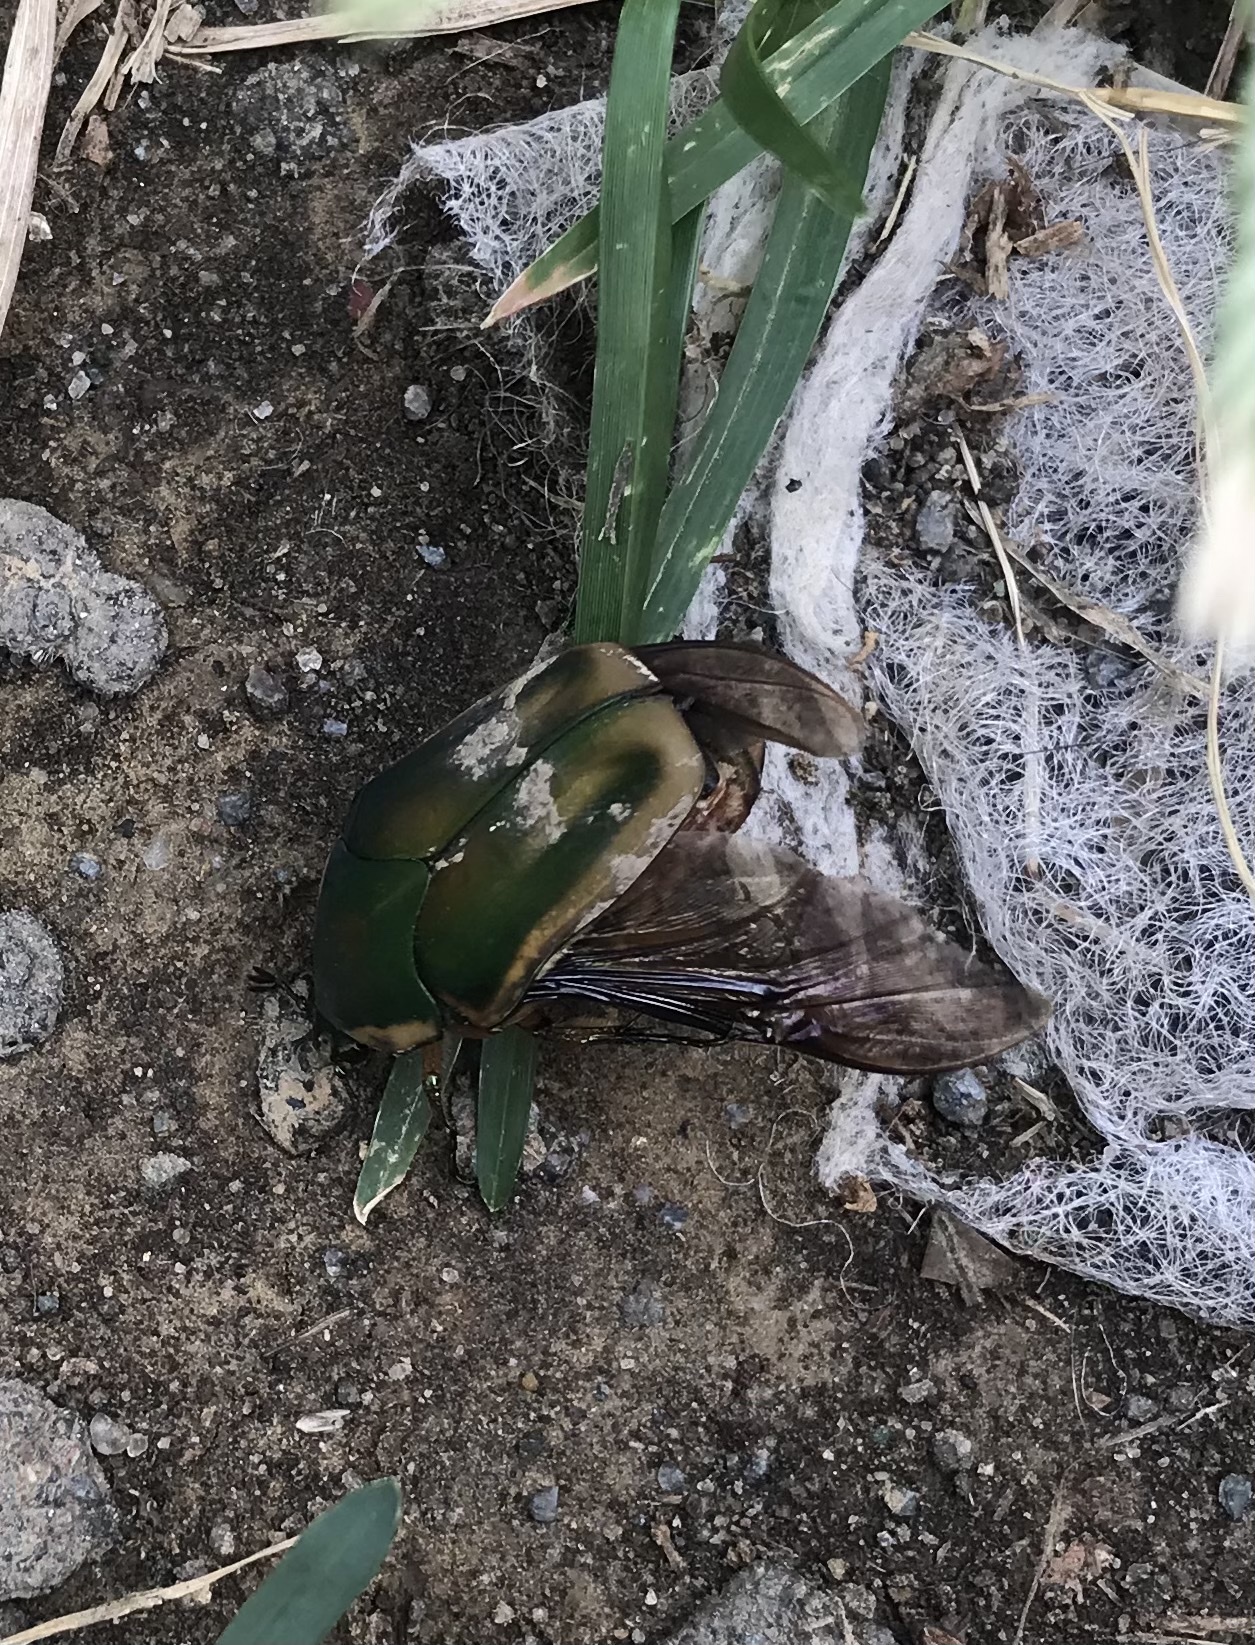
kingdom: Animalia
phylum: Arthropoda
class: Insecta
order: Coleoptera
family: Scarabaeidae
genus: Cotinis
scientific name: Cotinis nitida
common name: Common green june beetle
